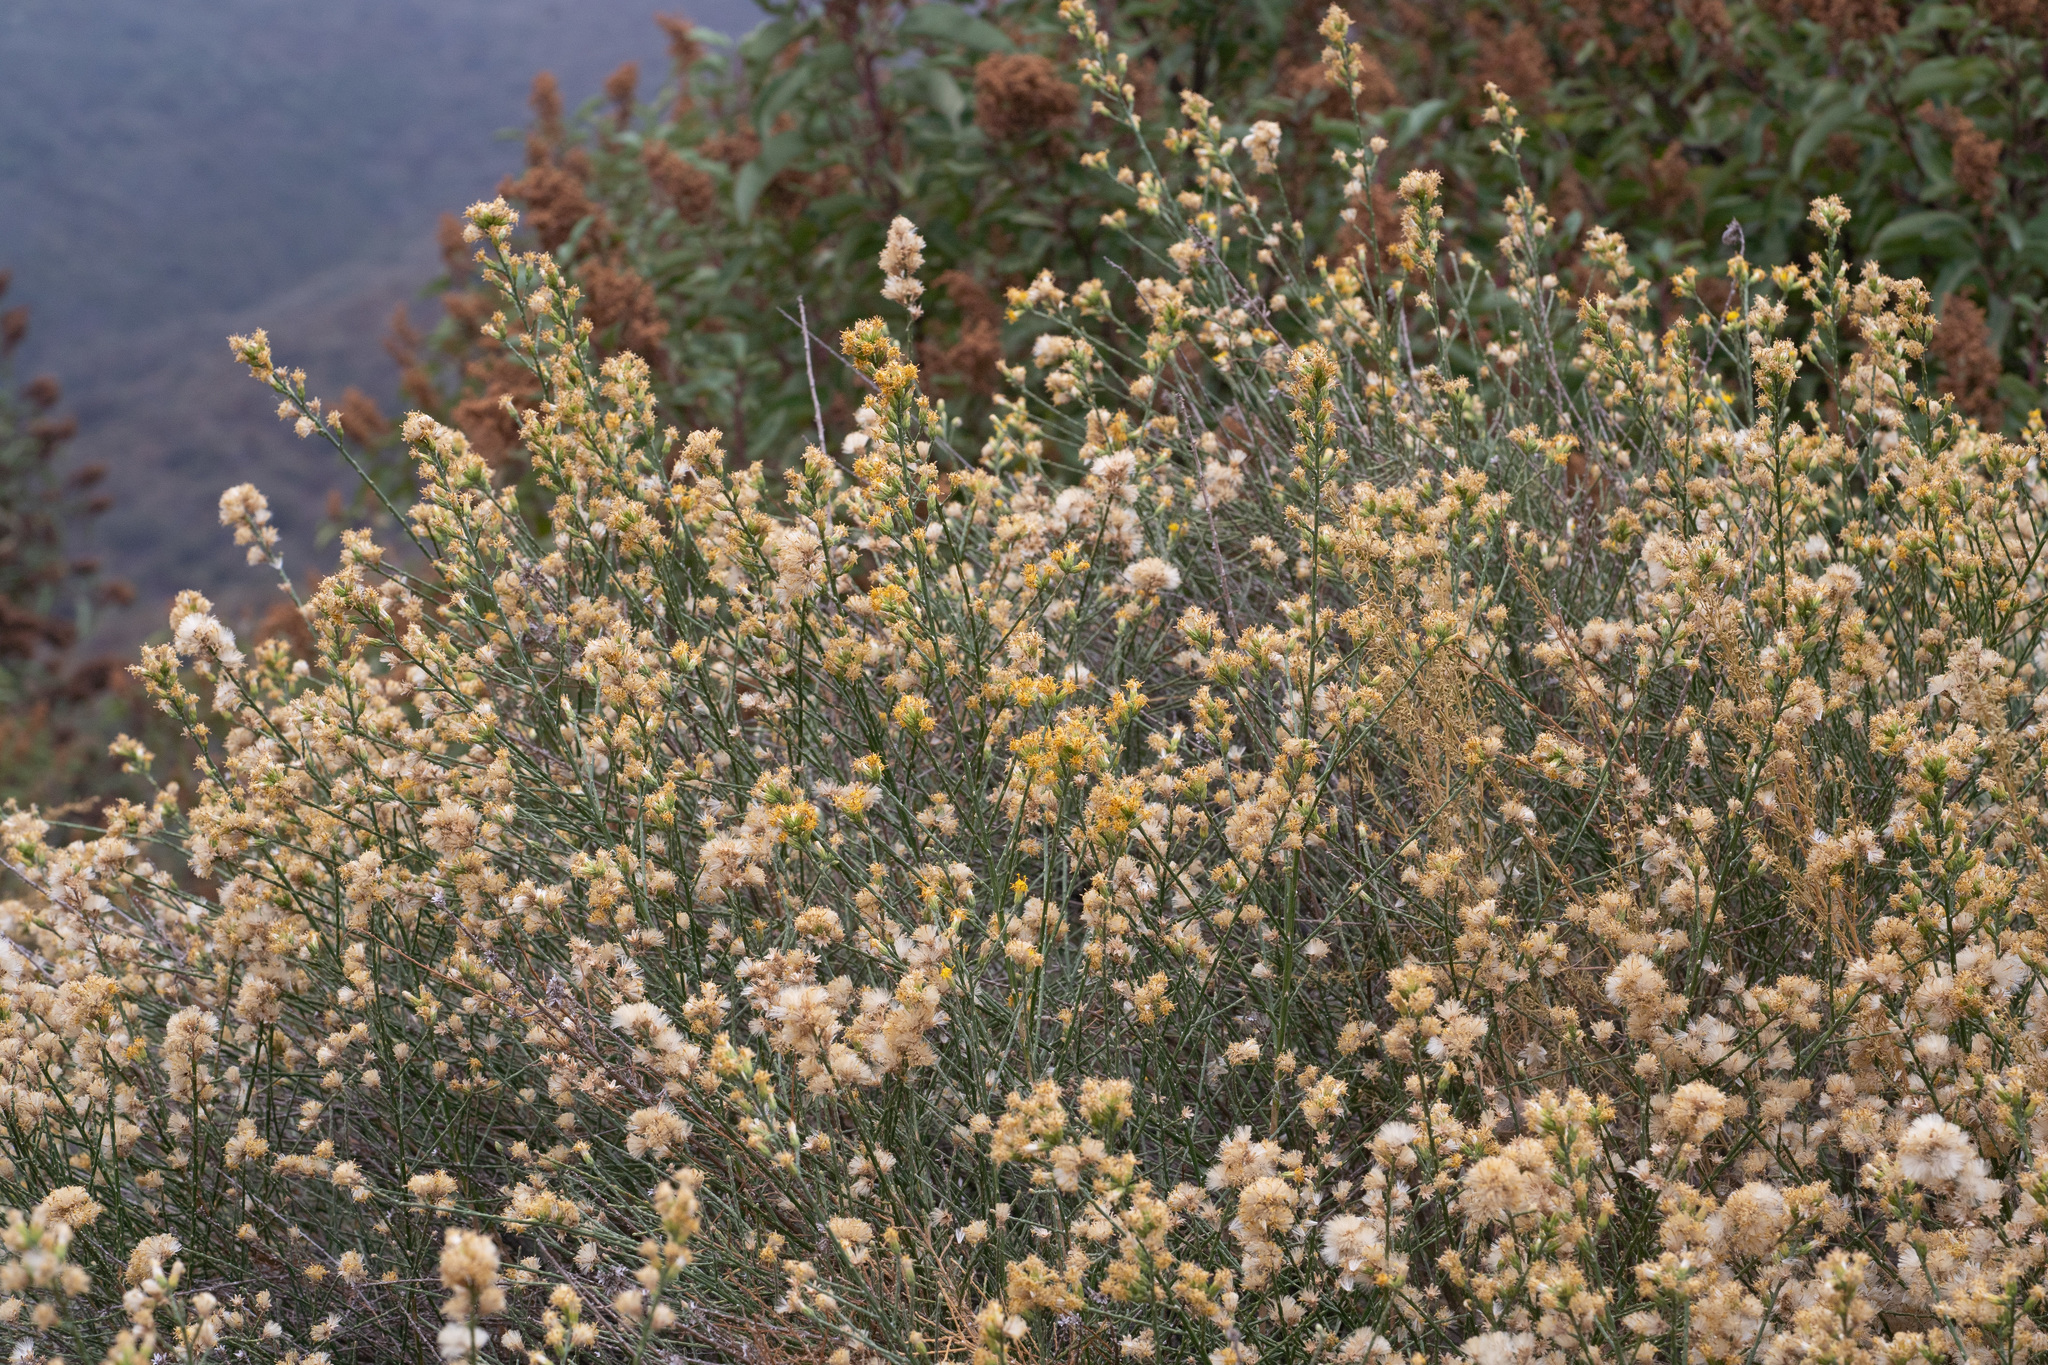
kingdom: Plantae
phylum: Tracheophyta
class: Magnoliopsida
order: Asterales
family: Asteraceae
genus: Lepidospartum
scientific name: Lepidospartum squamatum
